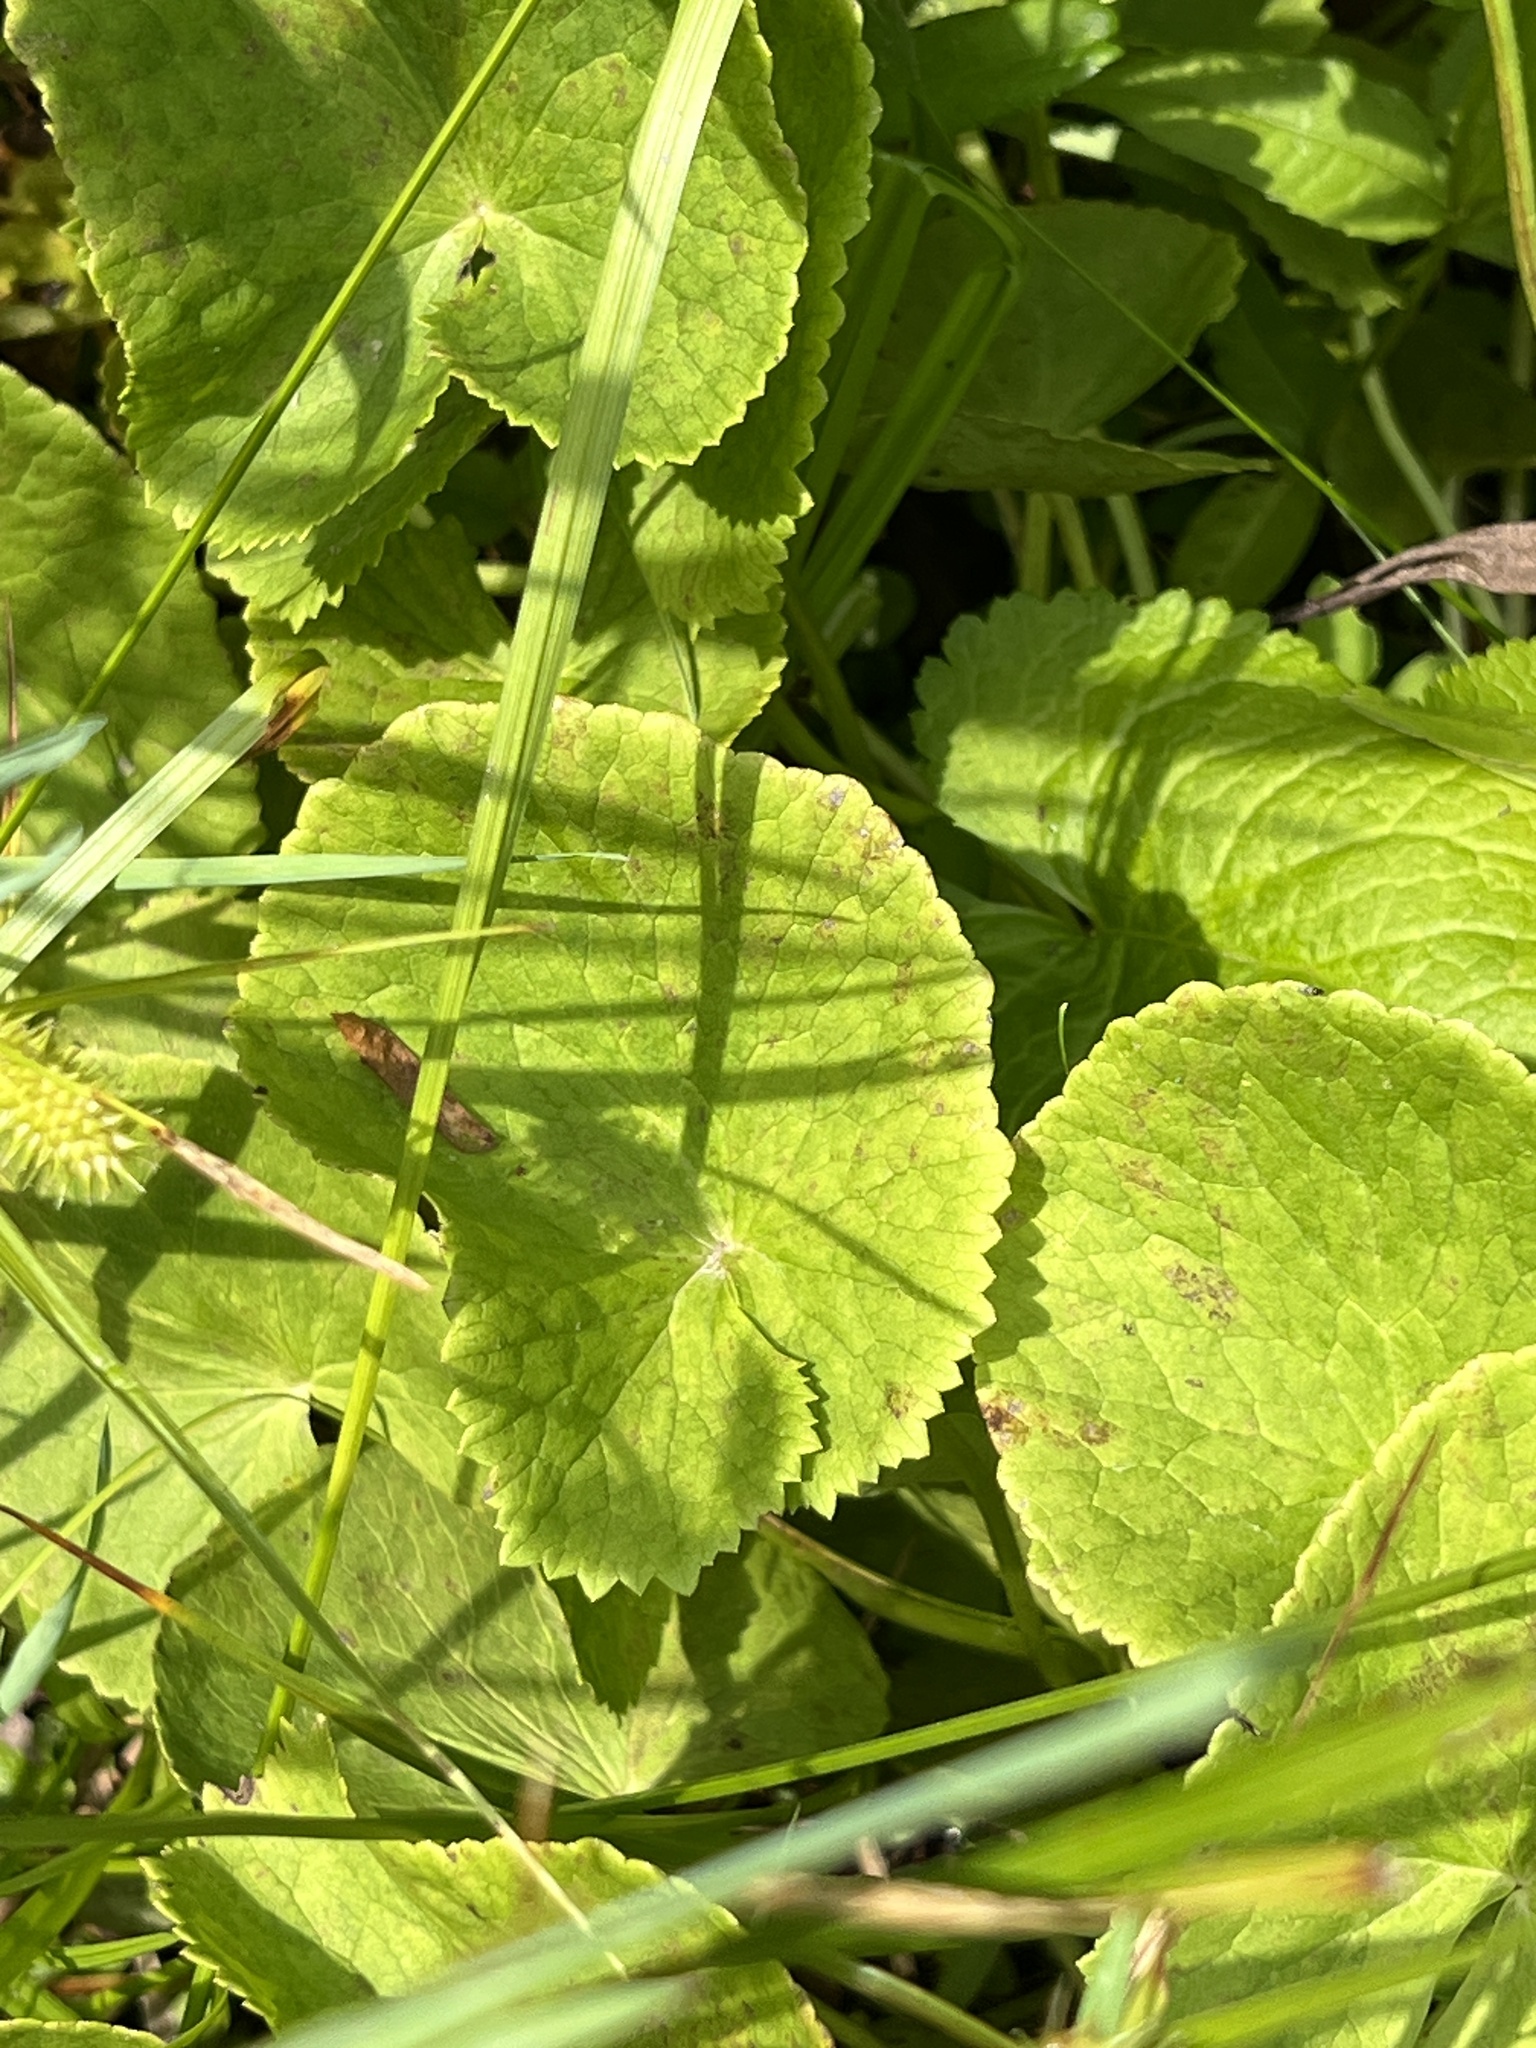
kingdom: Plantae
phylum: Tracheophyta
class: Magnoliopsida
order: Ranunculales
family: Ranunculaceae
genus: Caltha
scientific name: Caltha palustris
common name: Marsh marigold
